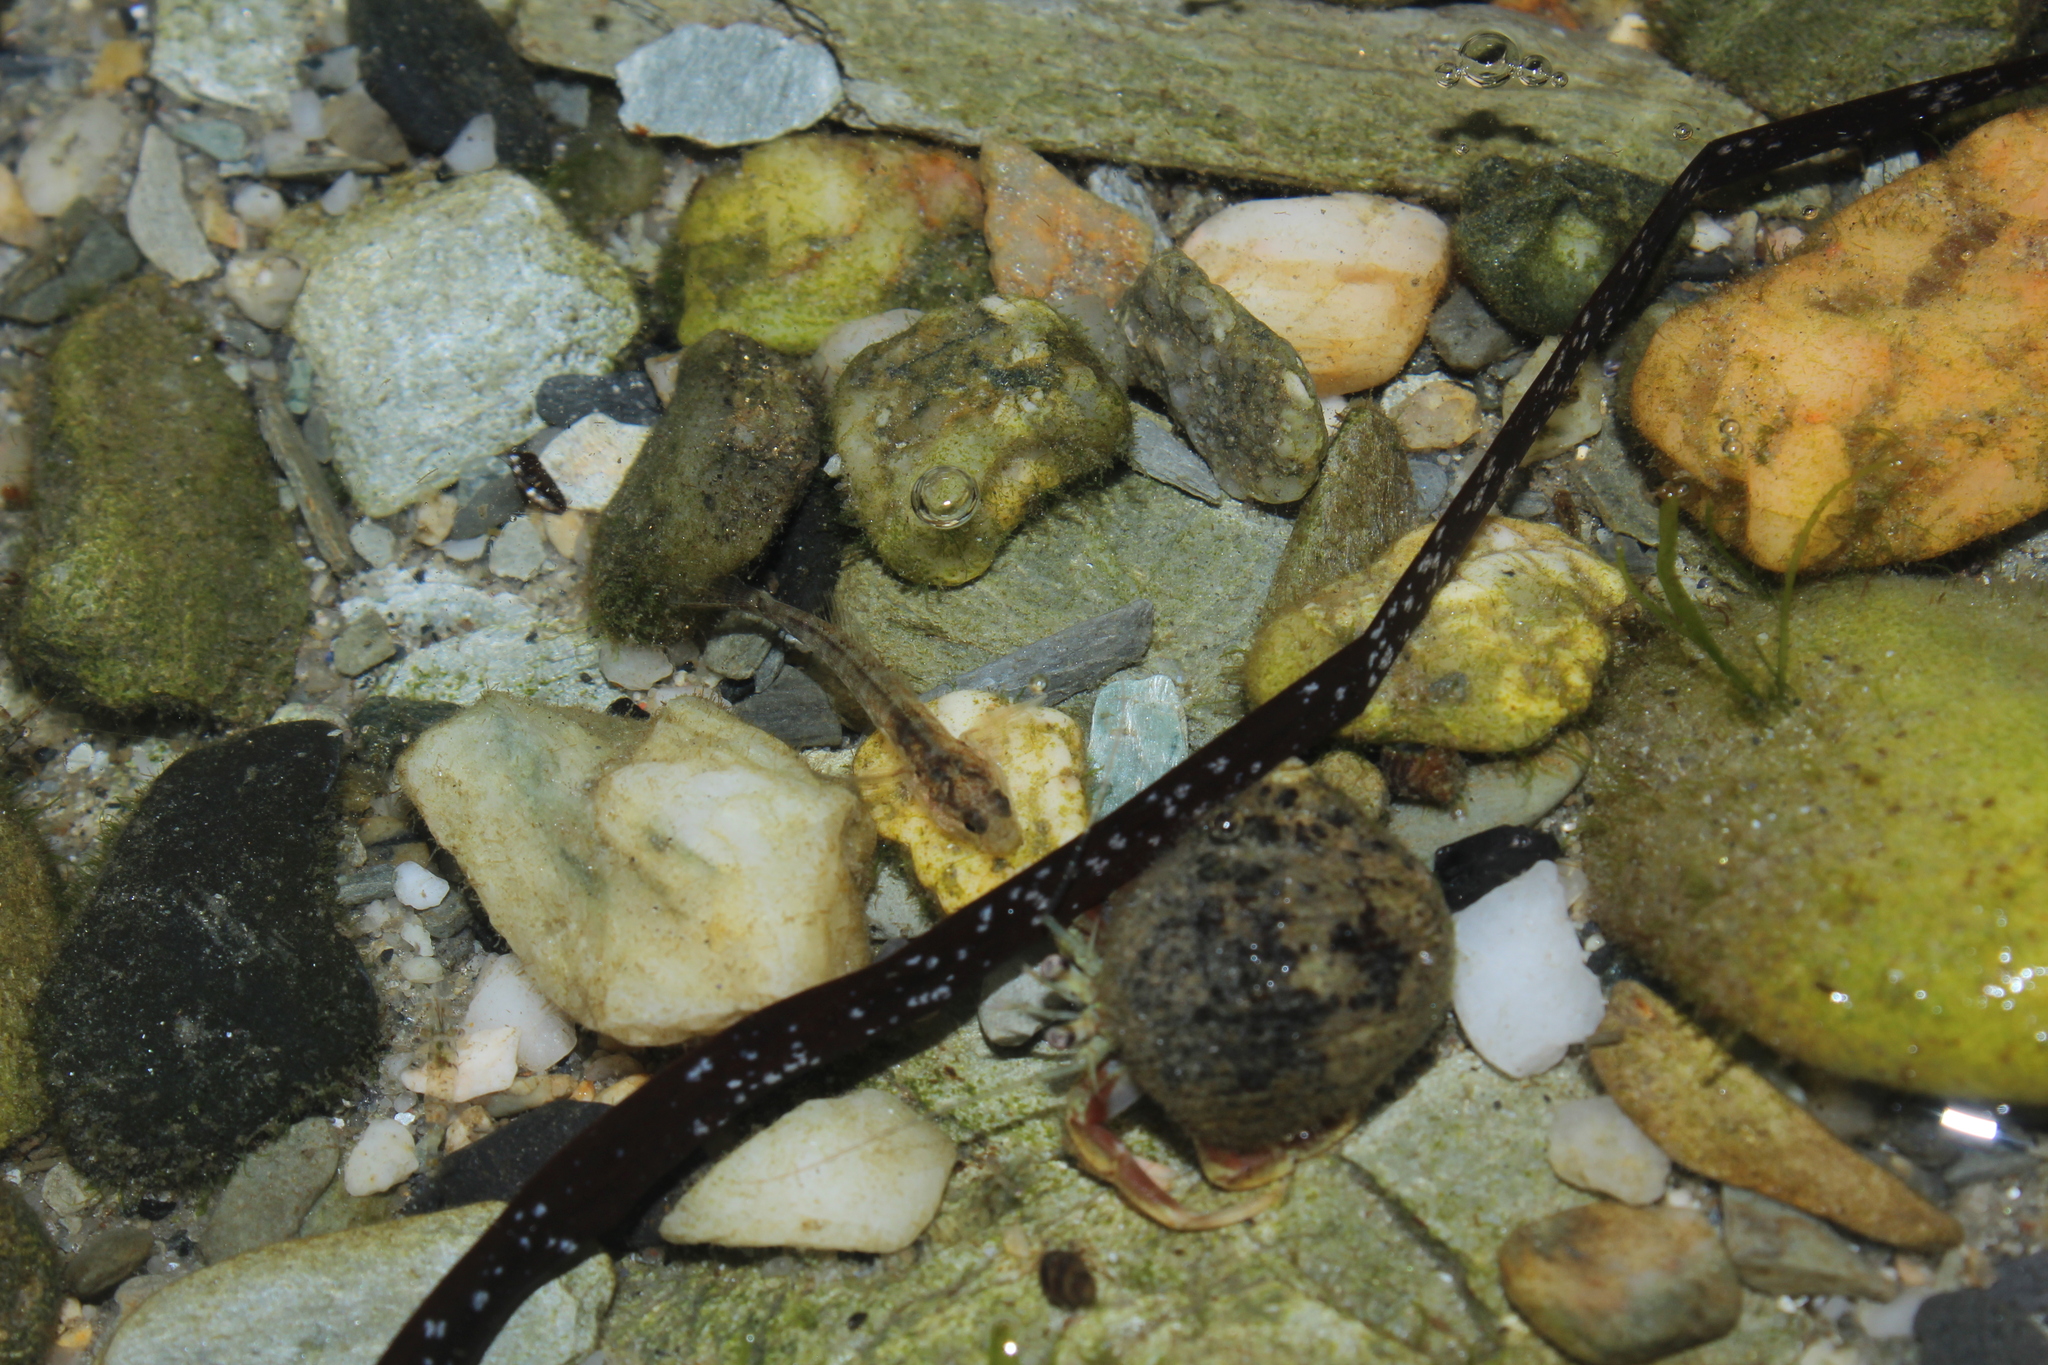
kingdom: Animalia
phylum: Arthropoda
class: Malacostraca
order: Decapoda
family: Paguridae
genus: Pagurus
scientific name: Pagurus longicarpus
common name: Long-armed hermit crab
